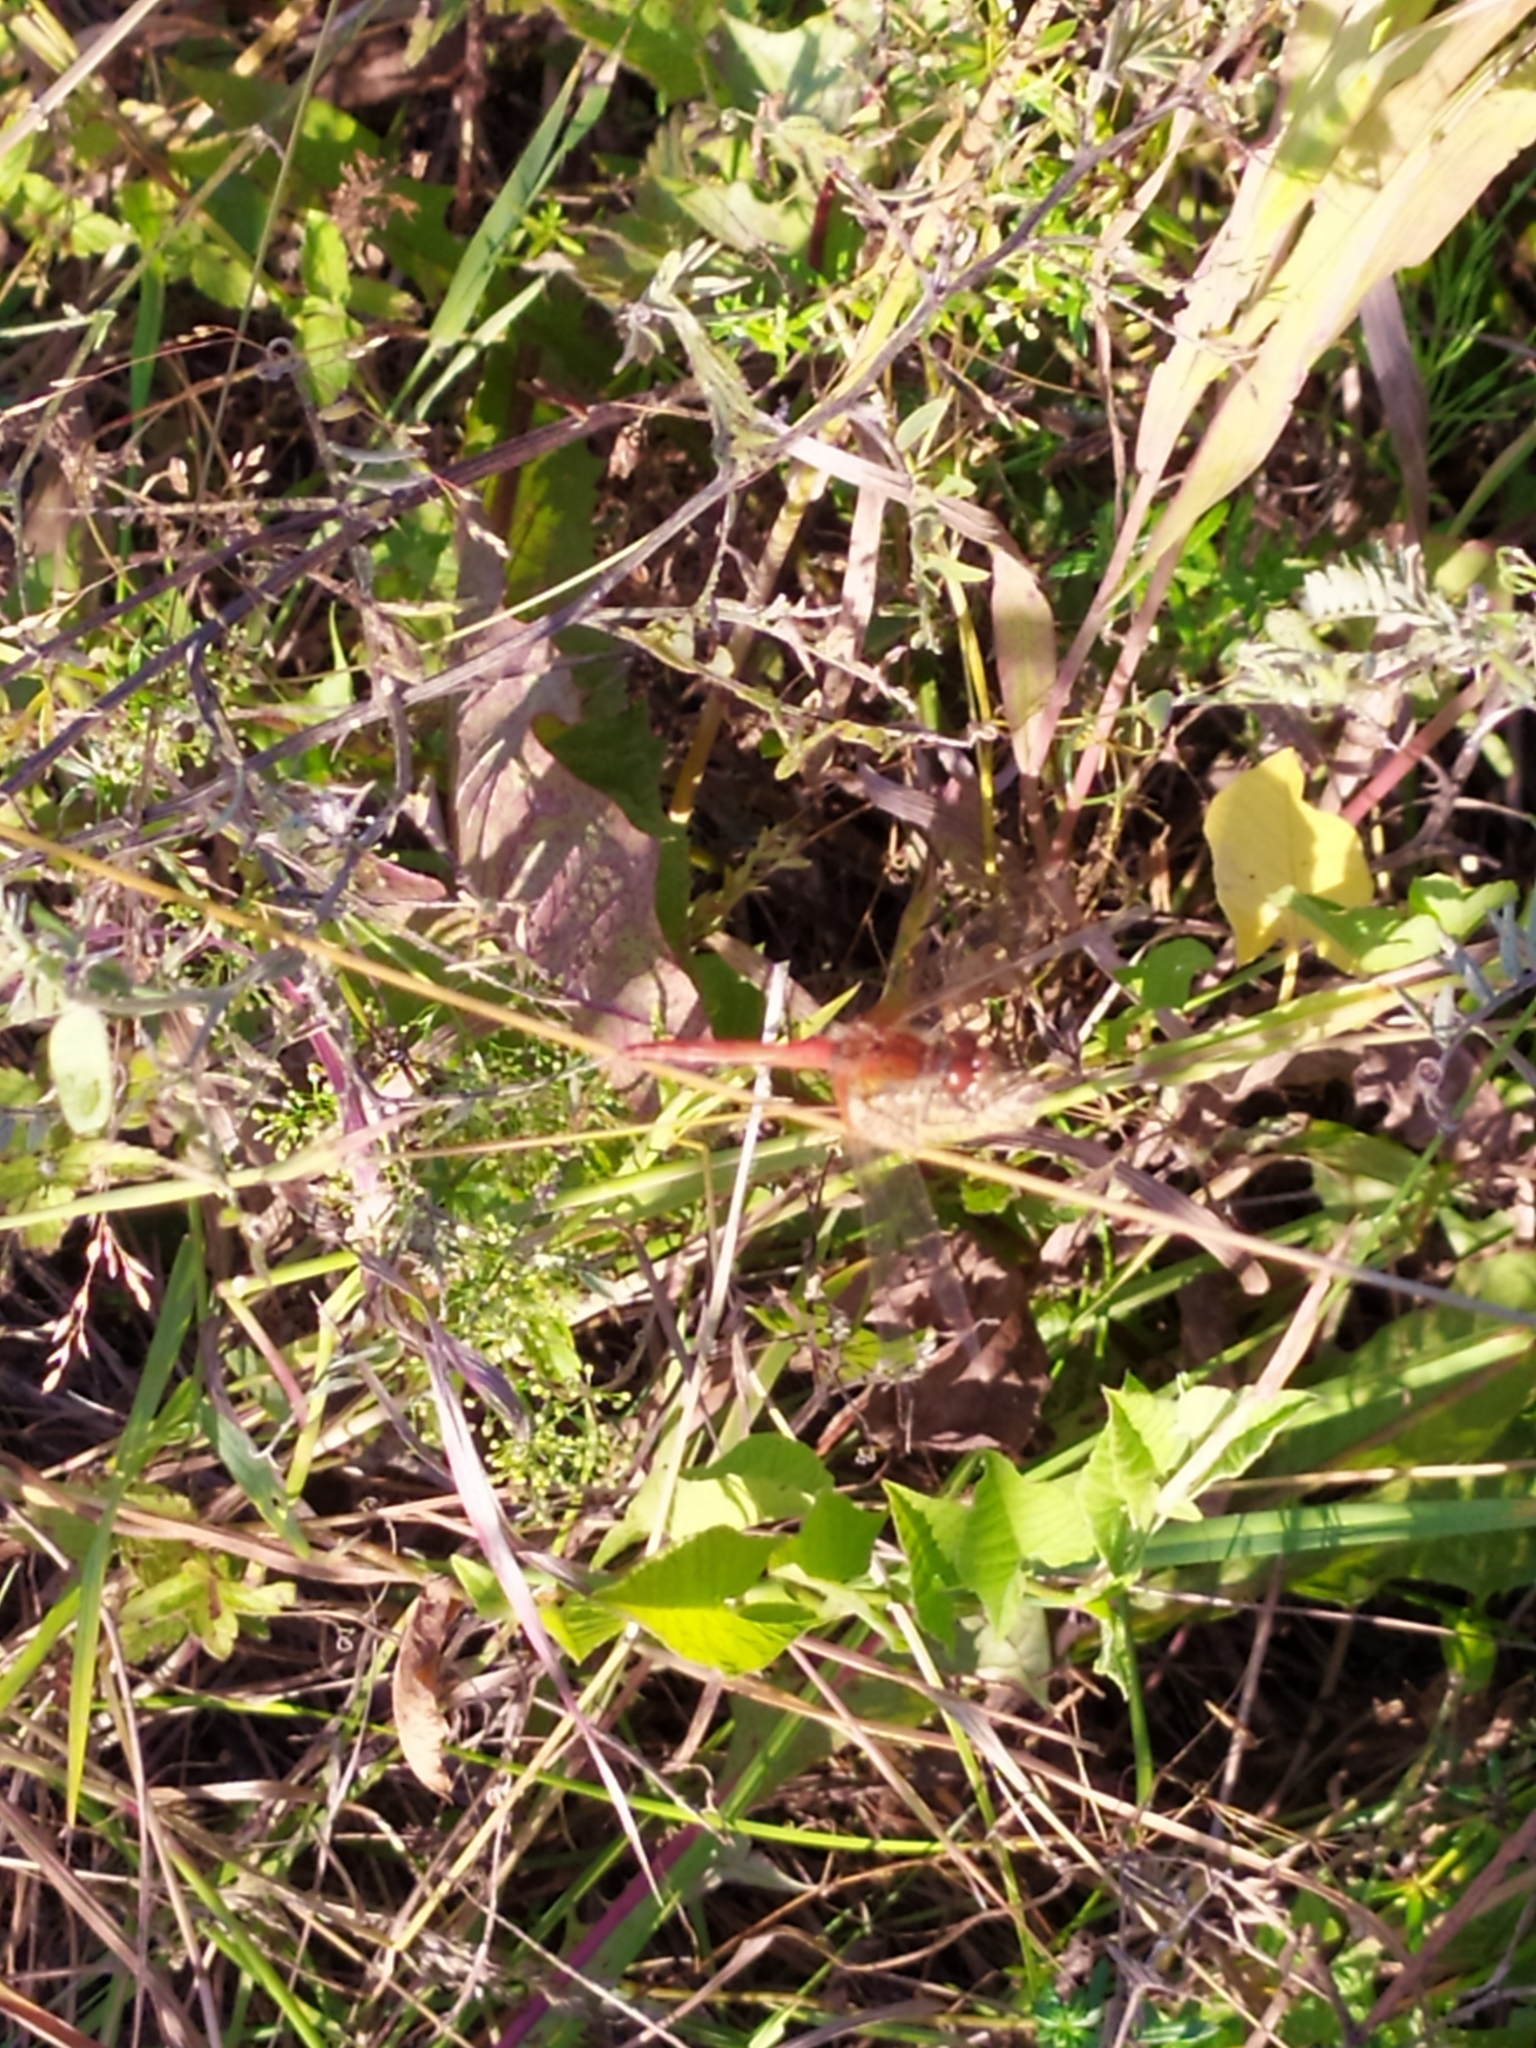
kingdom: Animalia
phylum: Arthropoda
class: Insecta
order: Odonata
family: Libellulidae
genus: Sympetrum
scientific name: Sympetrum flaveolum
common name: Yellow-winged darter
